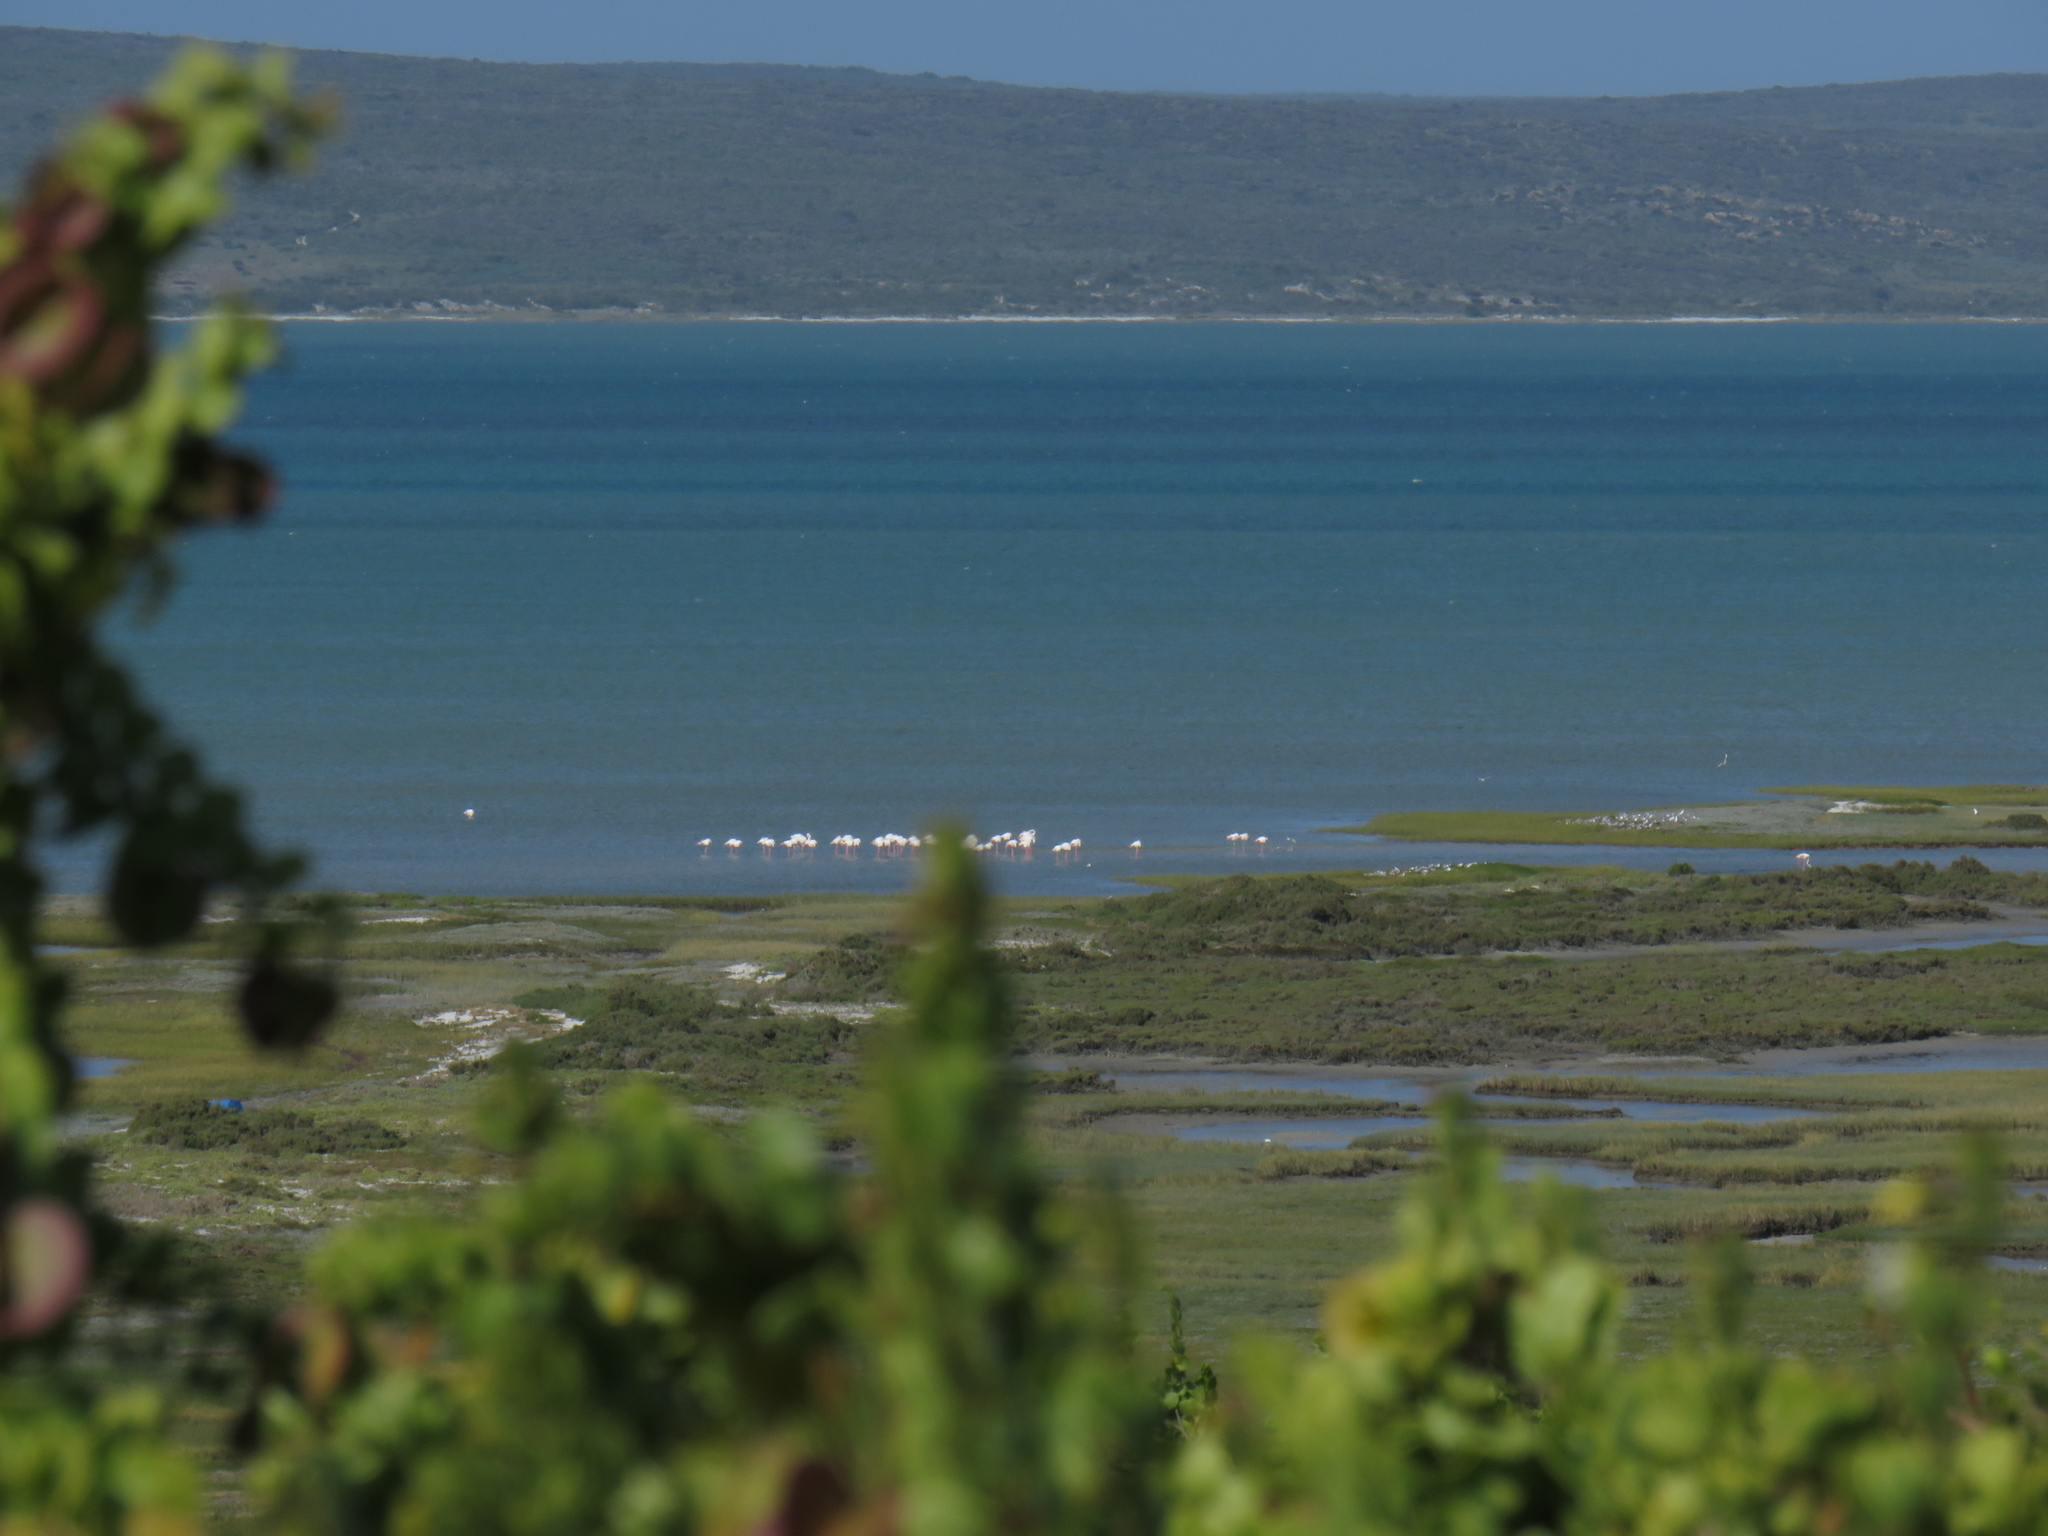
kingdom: Animalia
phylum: Chordata
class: Aves
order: Phoenicopteriformes
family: Phoenicopteridae
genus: Phoenicopterus
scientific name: Phoenicopterus roseus
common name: Greater flamingo
